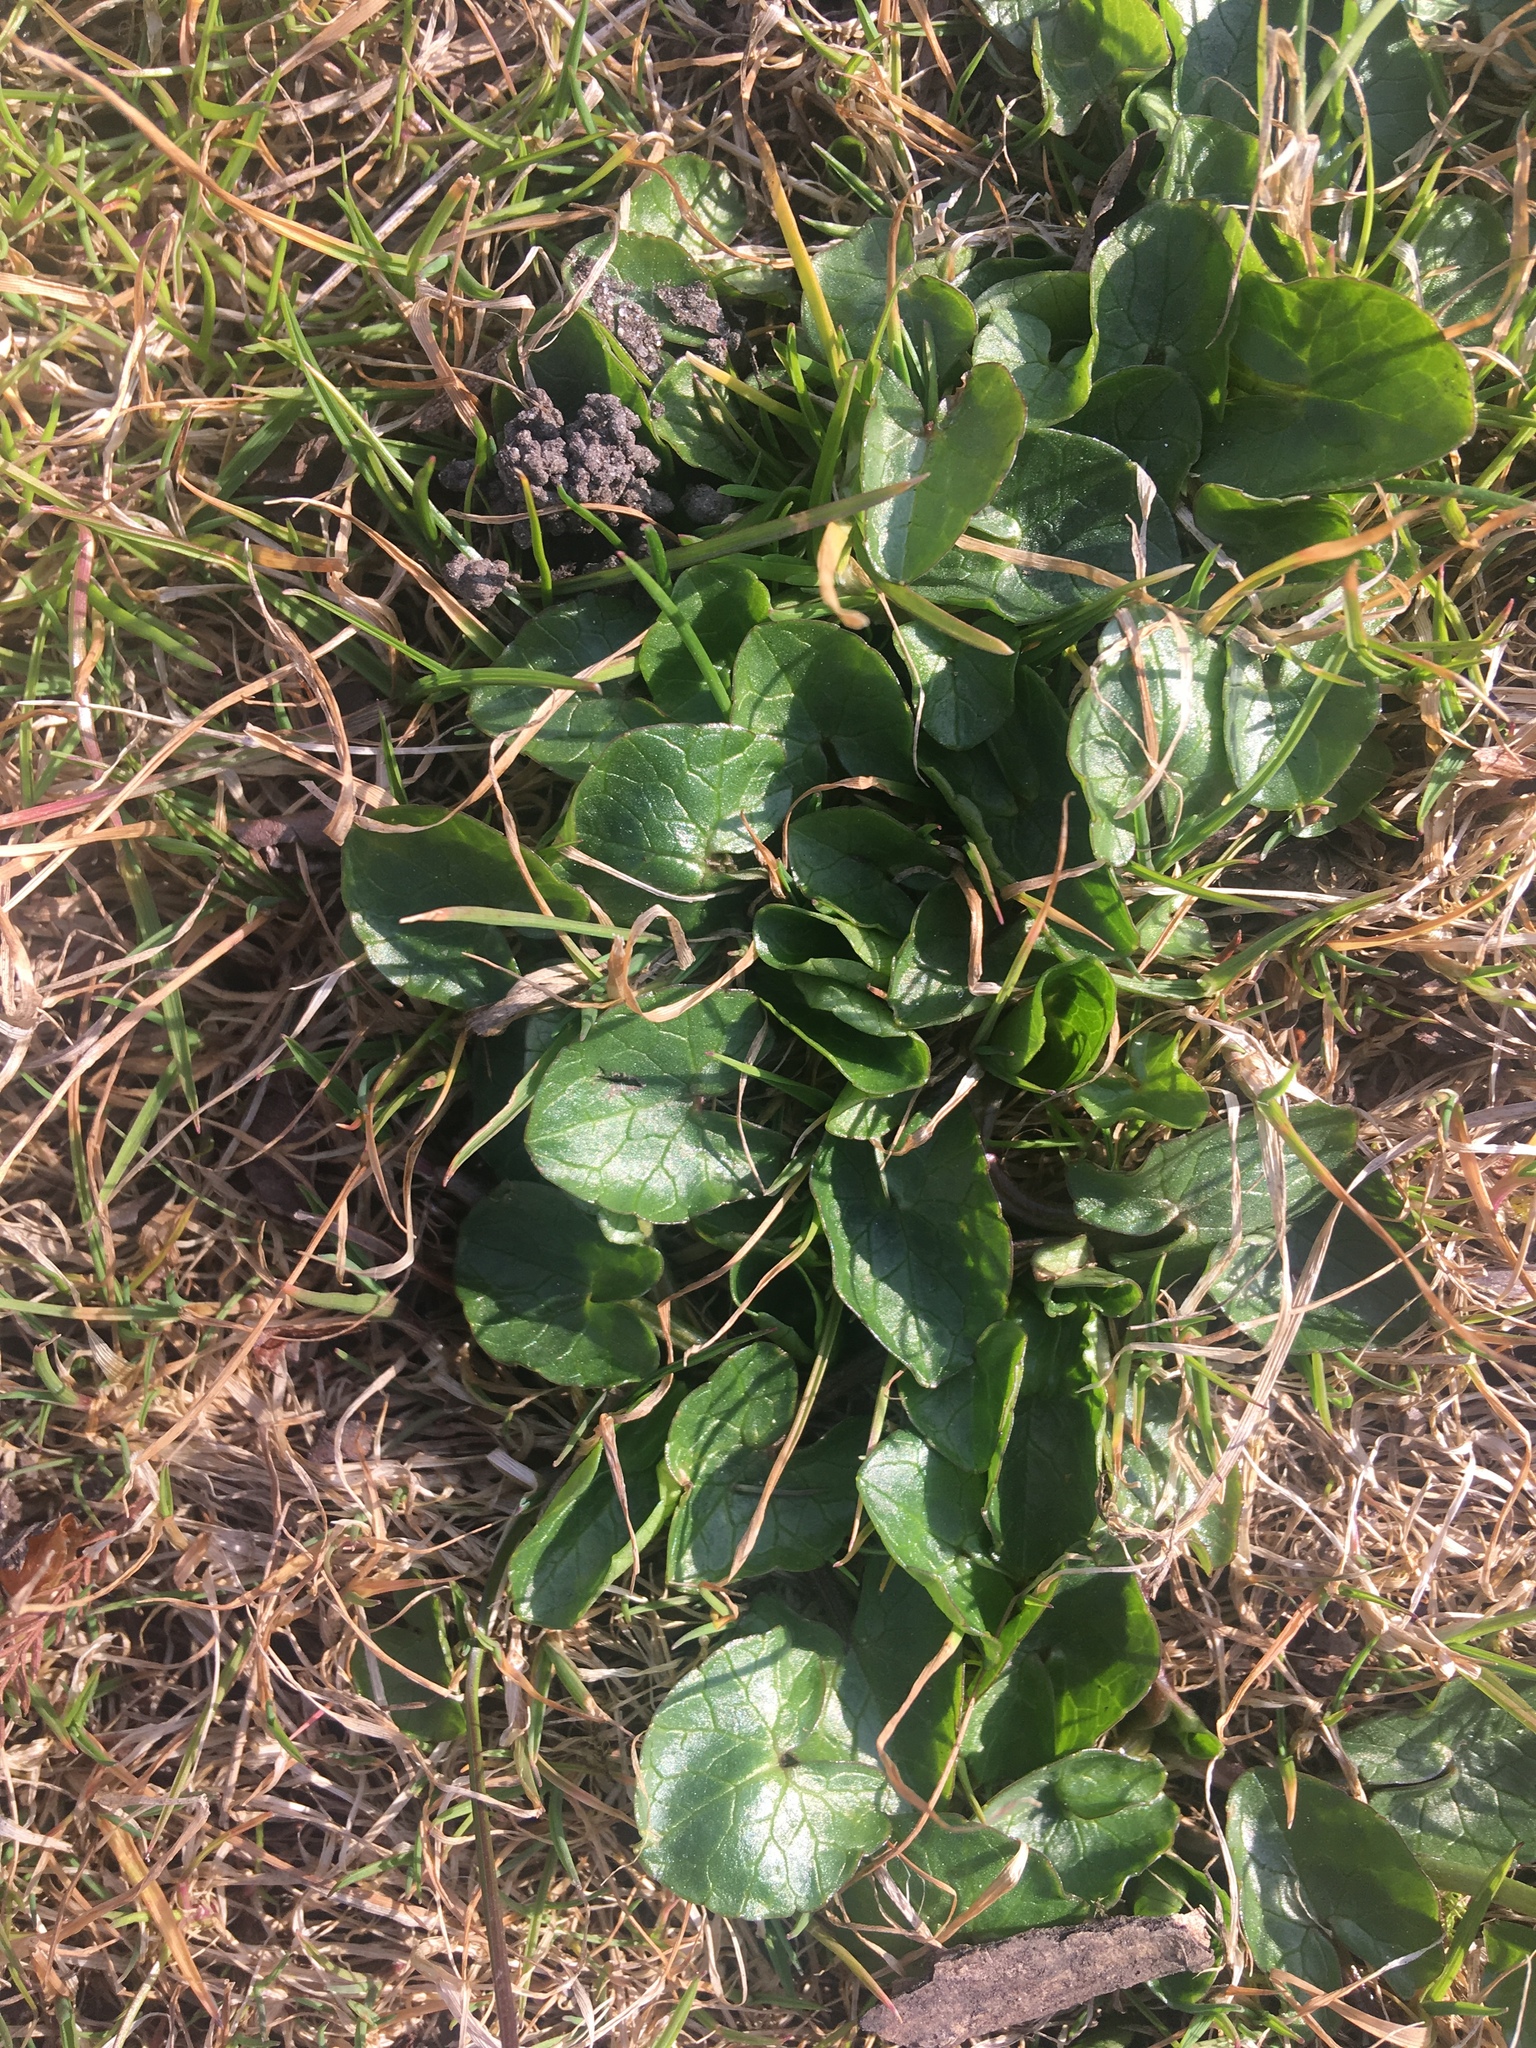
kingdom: Plantae
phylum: Tracheophyta
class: Magnoliopsida
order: Ranunculales
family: Ranunculaceae
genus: Ficaria
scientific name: Ficaria verna
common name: Lesser celandine
